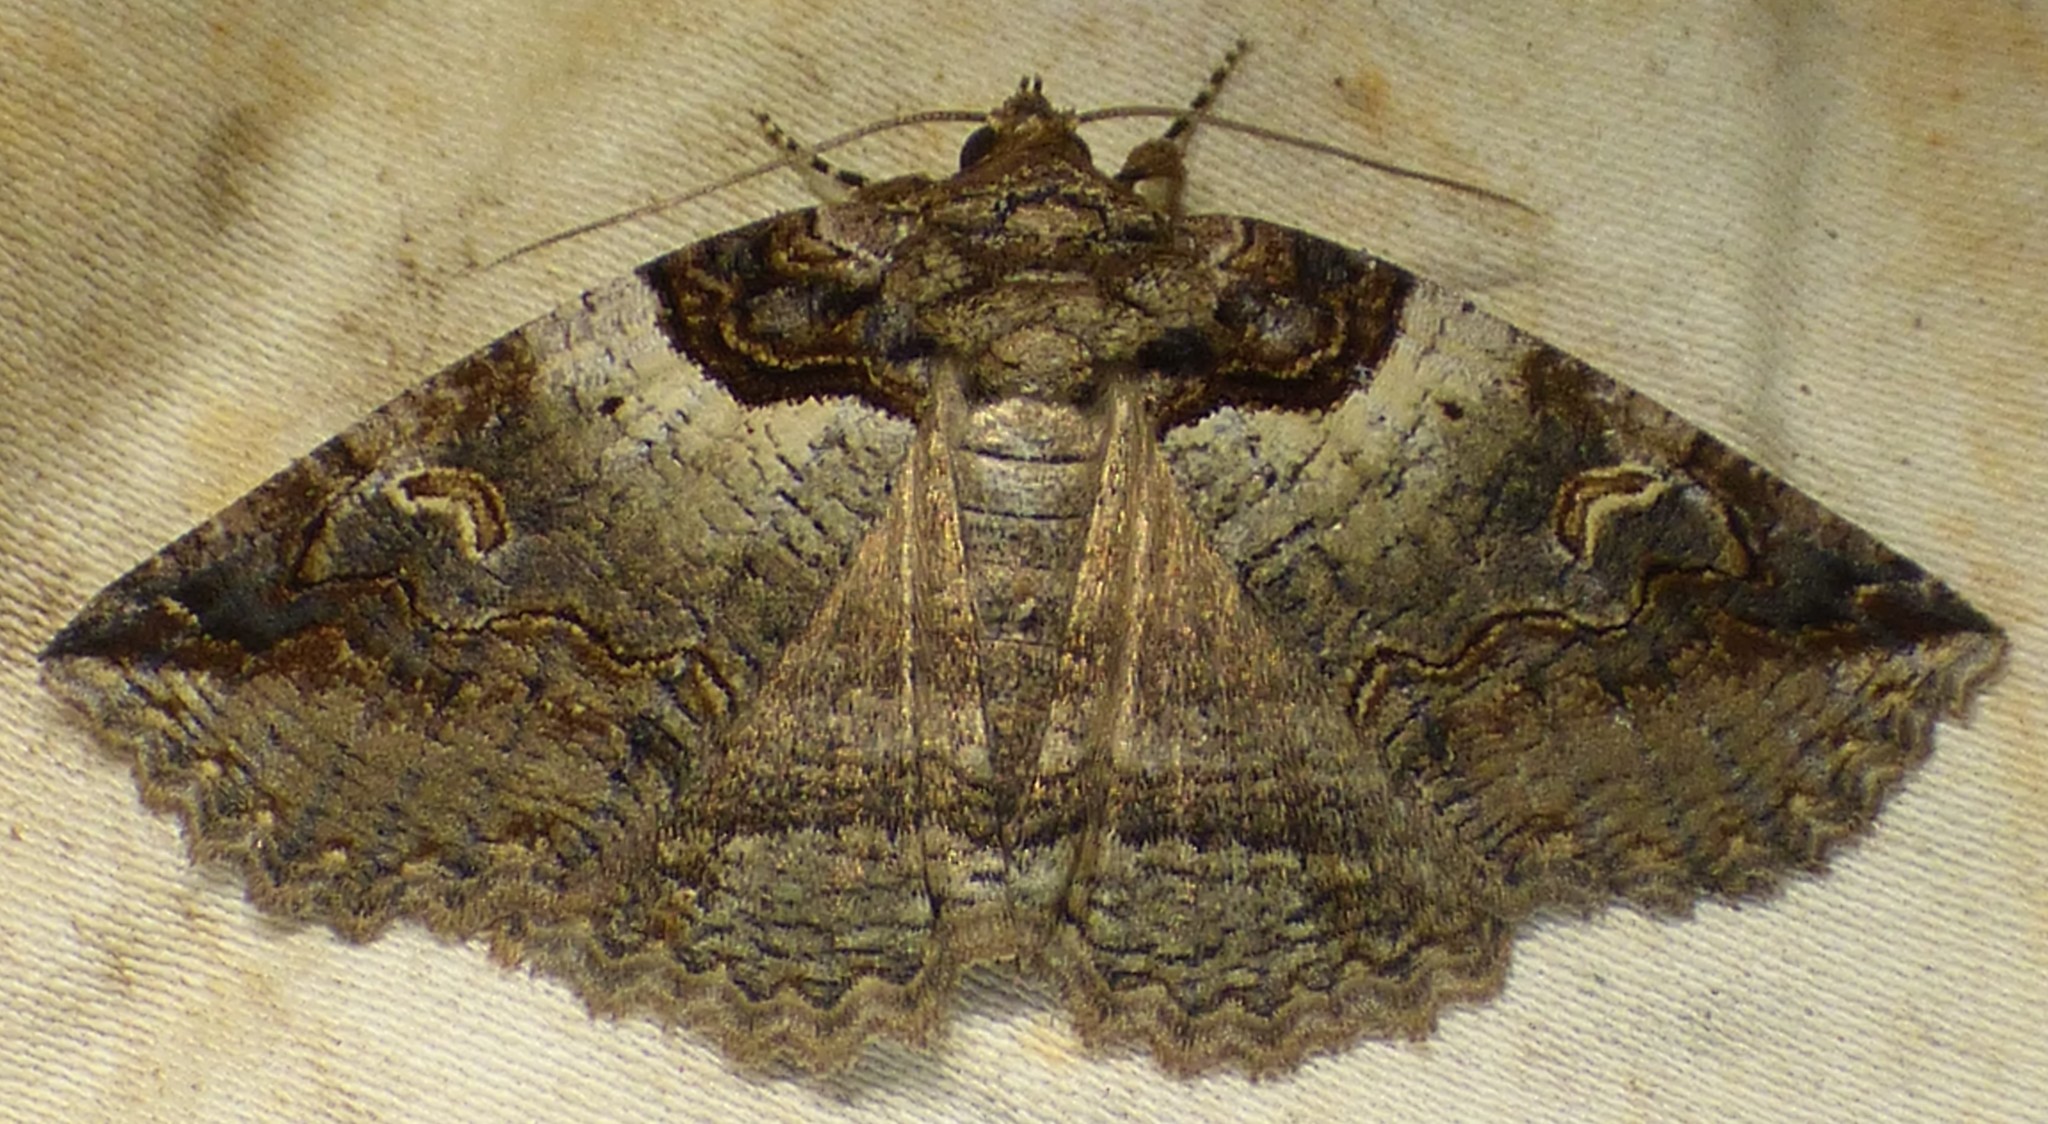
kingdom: Animalia
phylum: Arthropoda
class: Insecta
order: Lepidoptera
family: Erebidae
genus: Zale
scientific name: Zale intenta
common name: Intent zale moth
